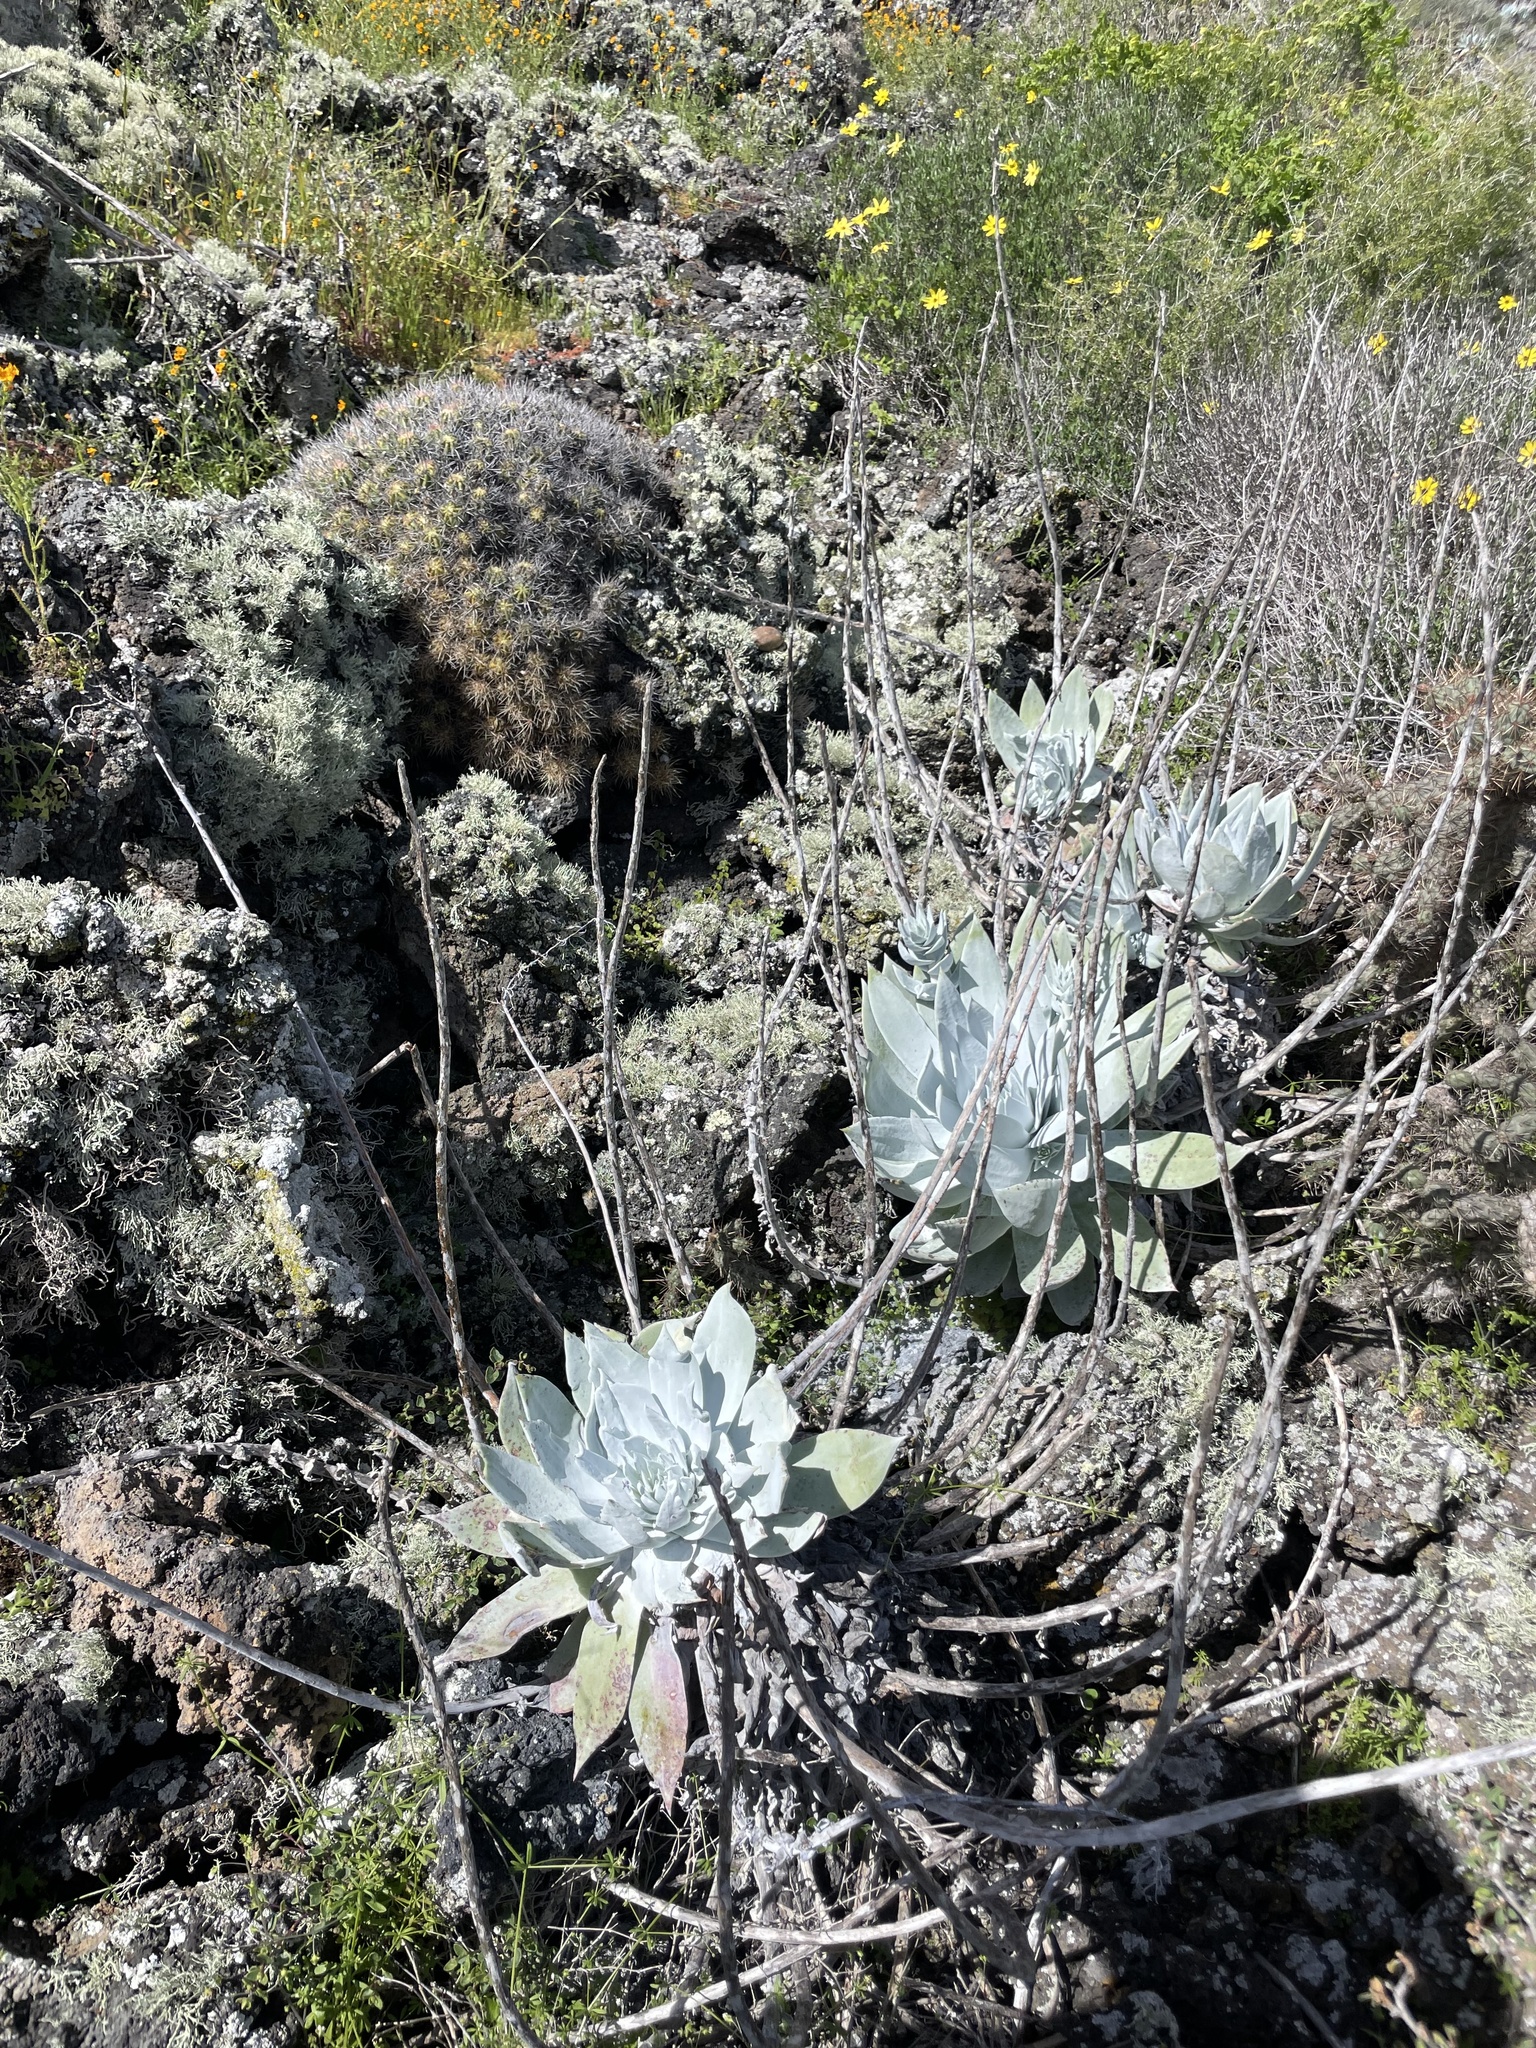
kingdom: Plantae
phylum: Tracheophyta
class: Magnoliopsida
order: Saxifragales
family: Crassulaceae
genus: Dudleya
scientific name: Dudleya anthonyi
